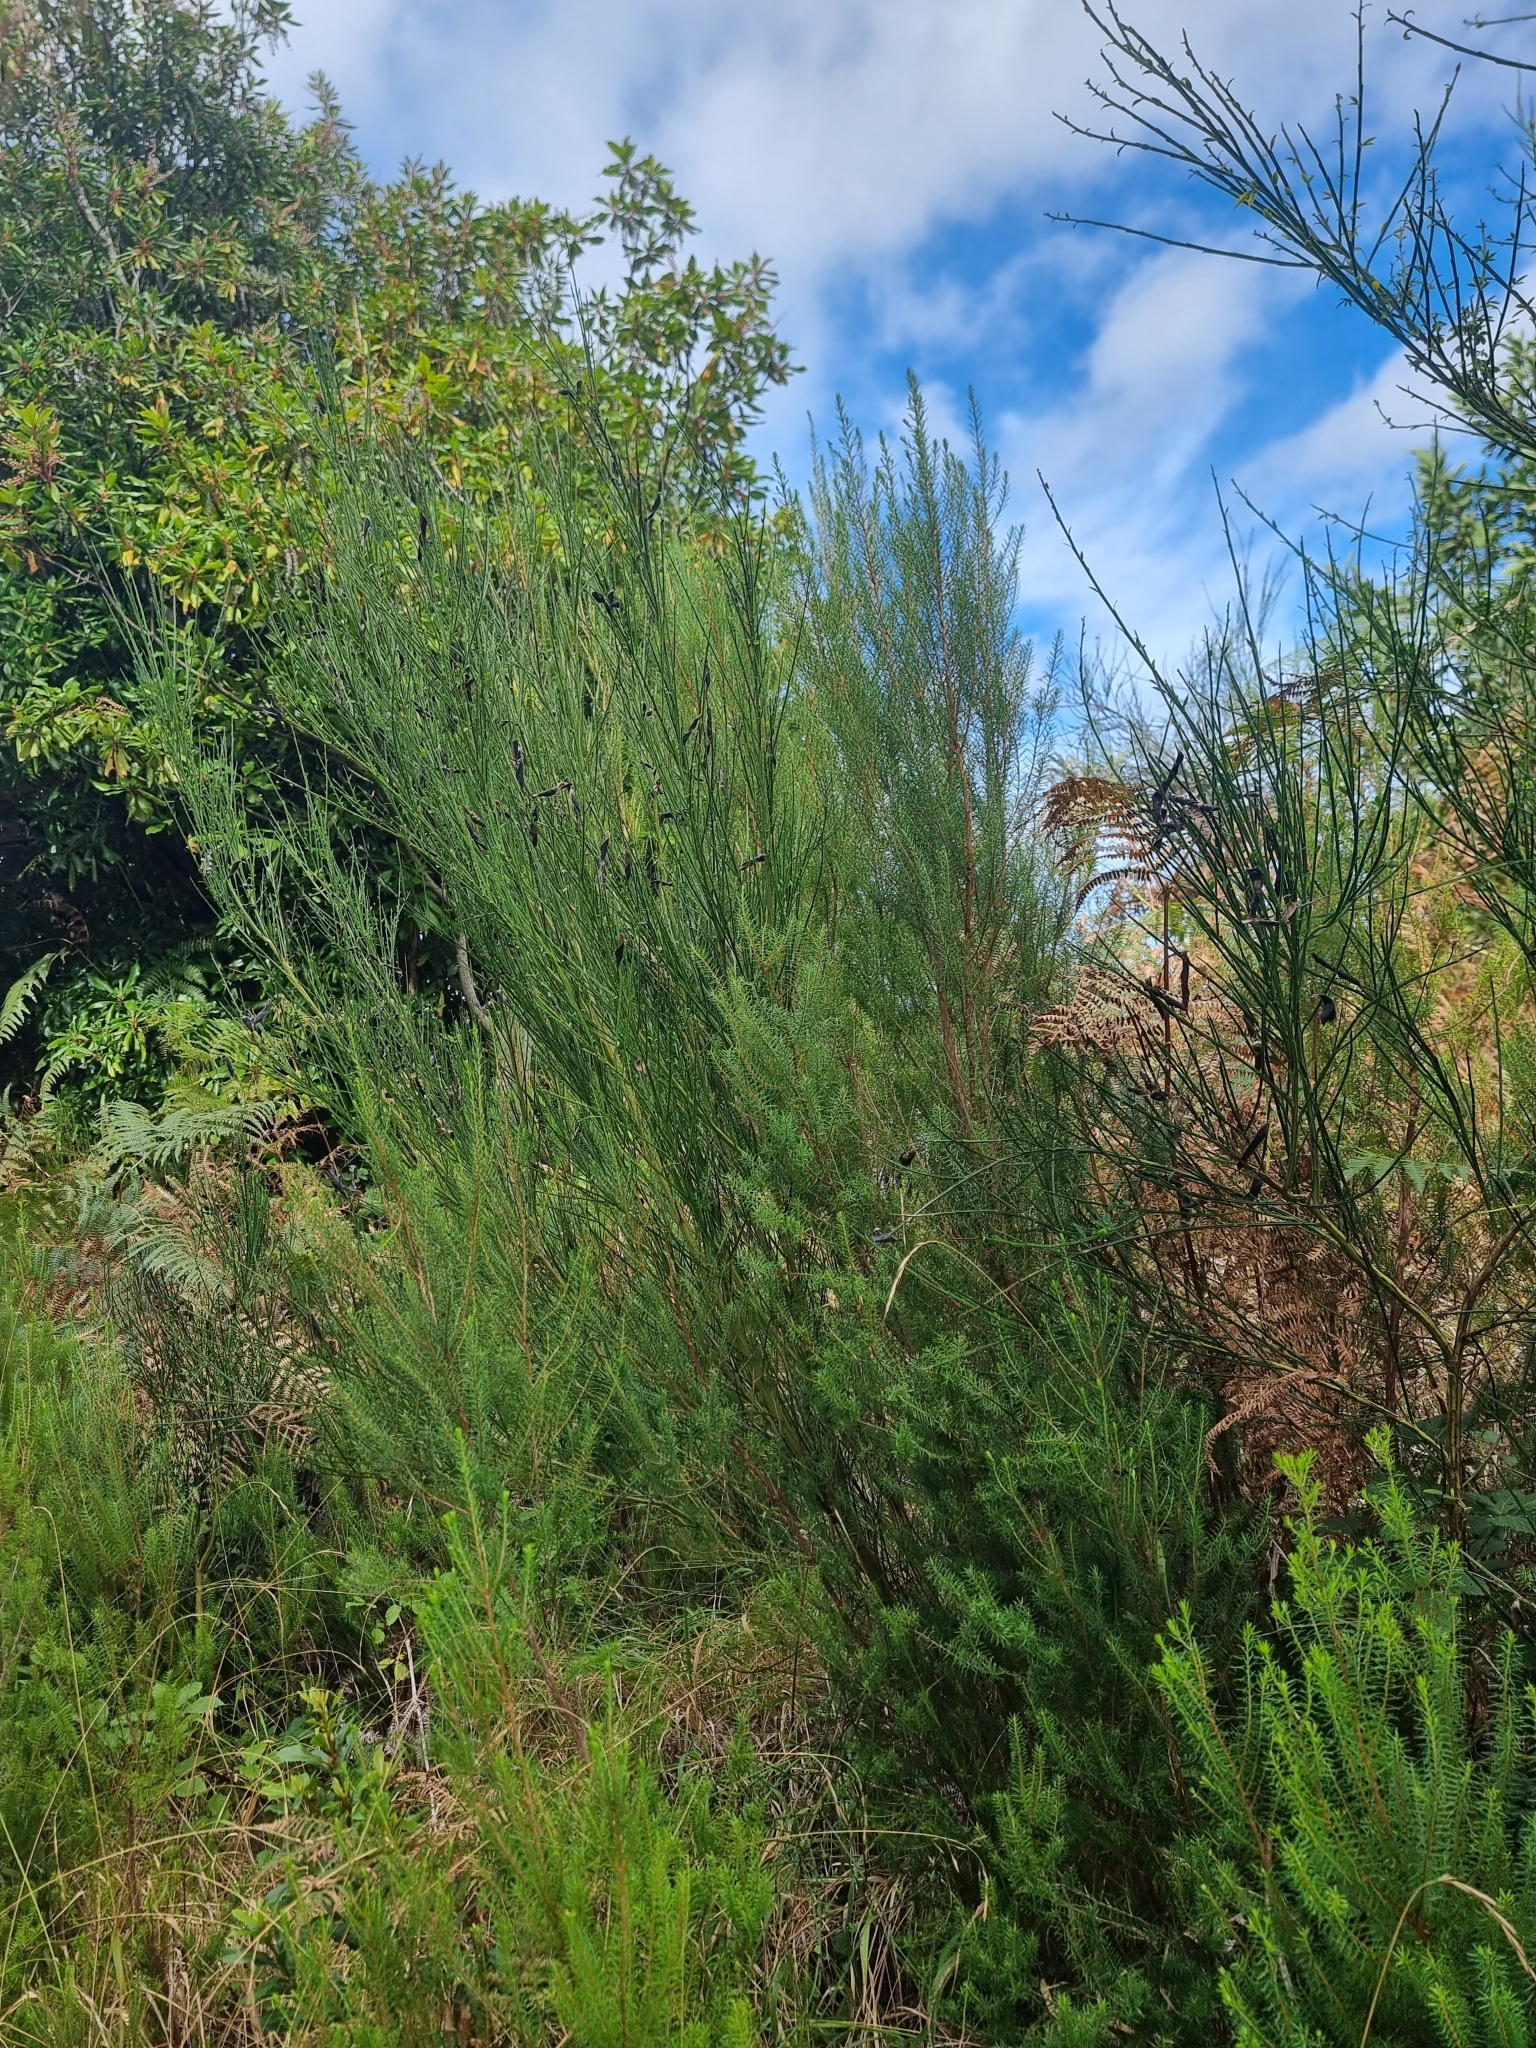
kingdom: Plantae
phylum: Tracheophyta
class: Magnoliopsida
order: Fabales
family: Fabaceae
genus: Cytisus
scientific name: Cytisus scoparius
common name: Scotch broom
